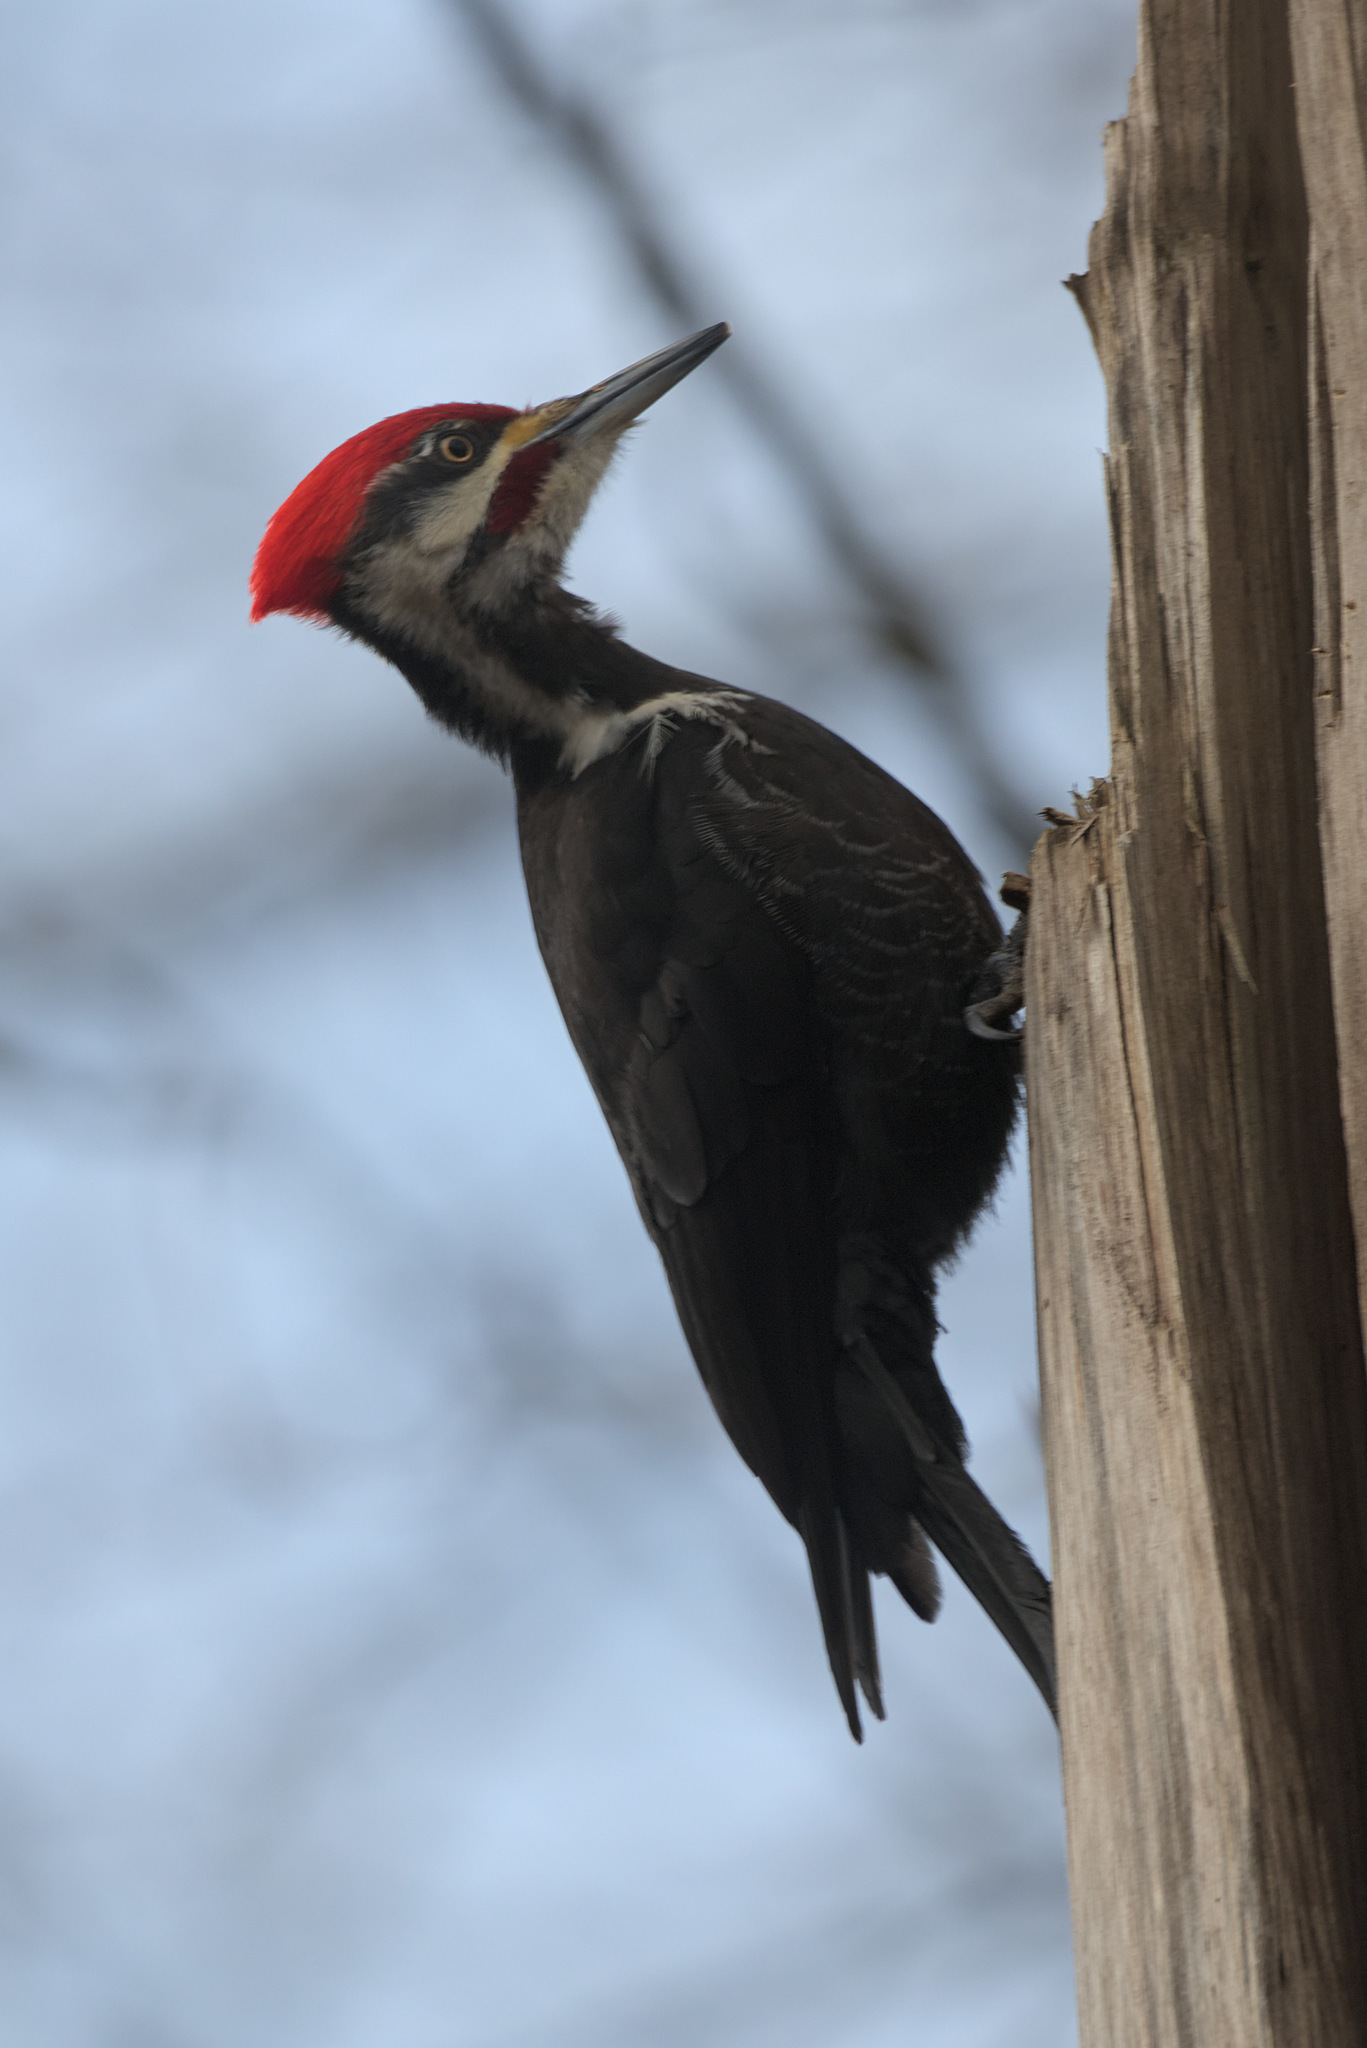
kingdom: Animalia
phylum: Chordata
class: Aves
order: Piciformes
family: Picidae
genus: Dryocopus
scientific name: Dryocopus pileatus
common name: Pileated woodpecker
